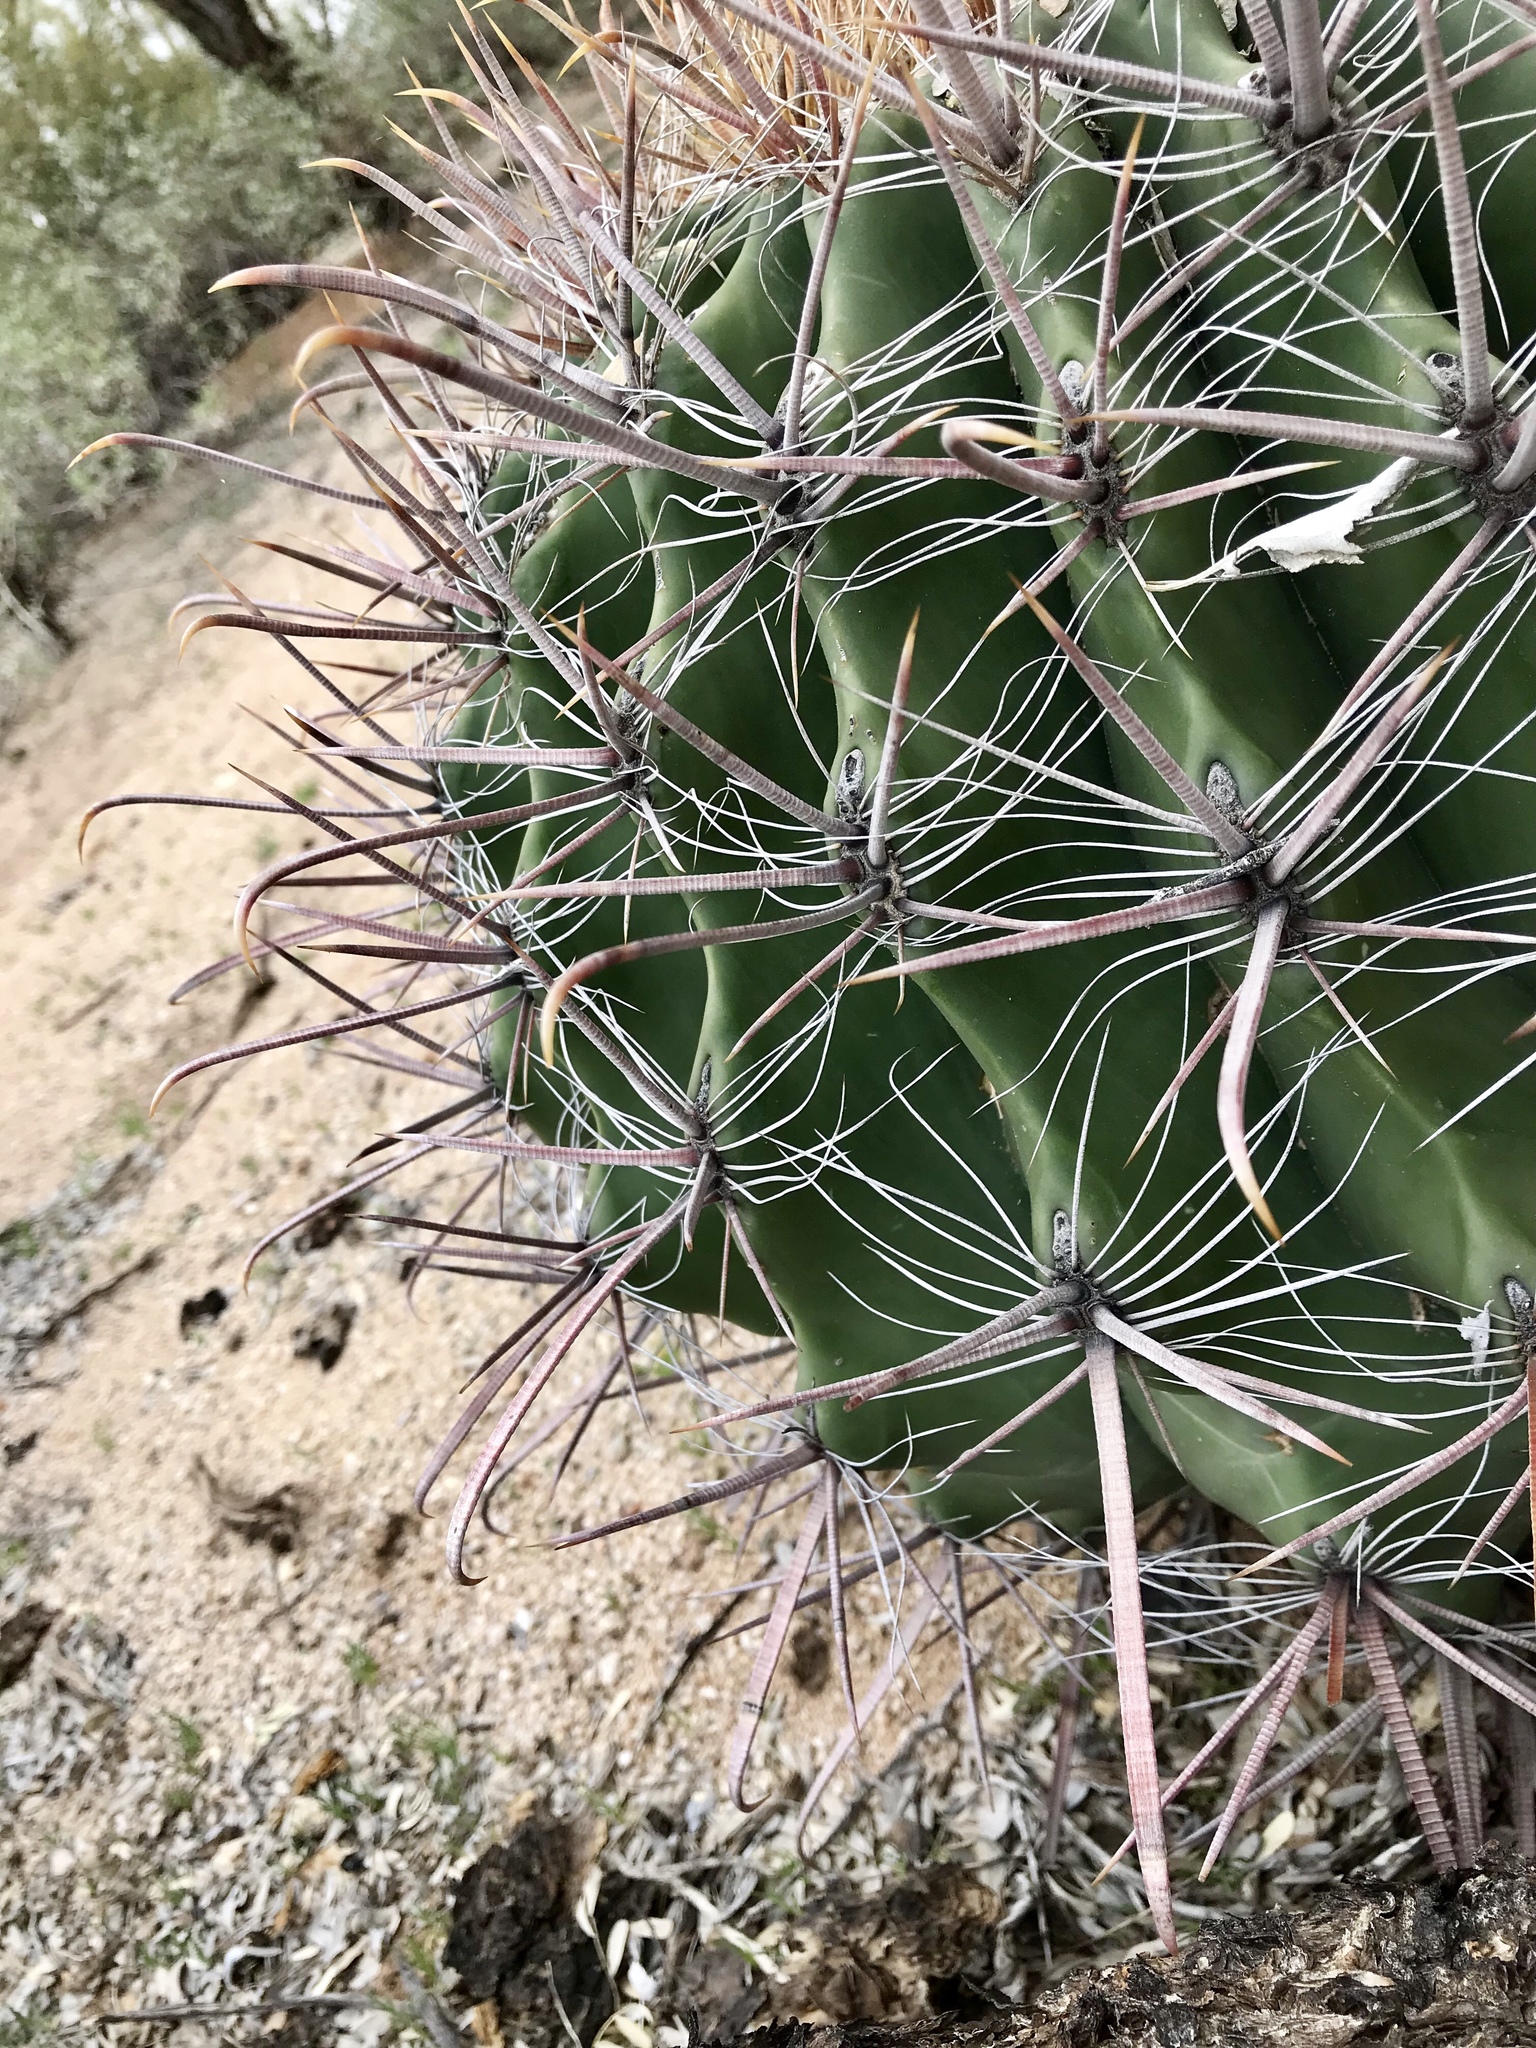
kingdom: Plantae
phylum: Tracheophyta
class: Magnoliopsida
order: Caryophyllales
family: Cactaceae
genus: Ferocactus
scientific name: Ferocactus wislizeni
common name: Candy barrel cactus
